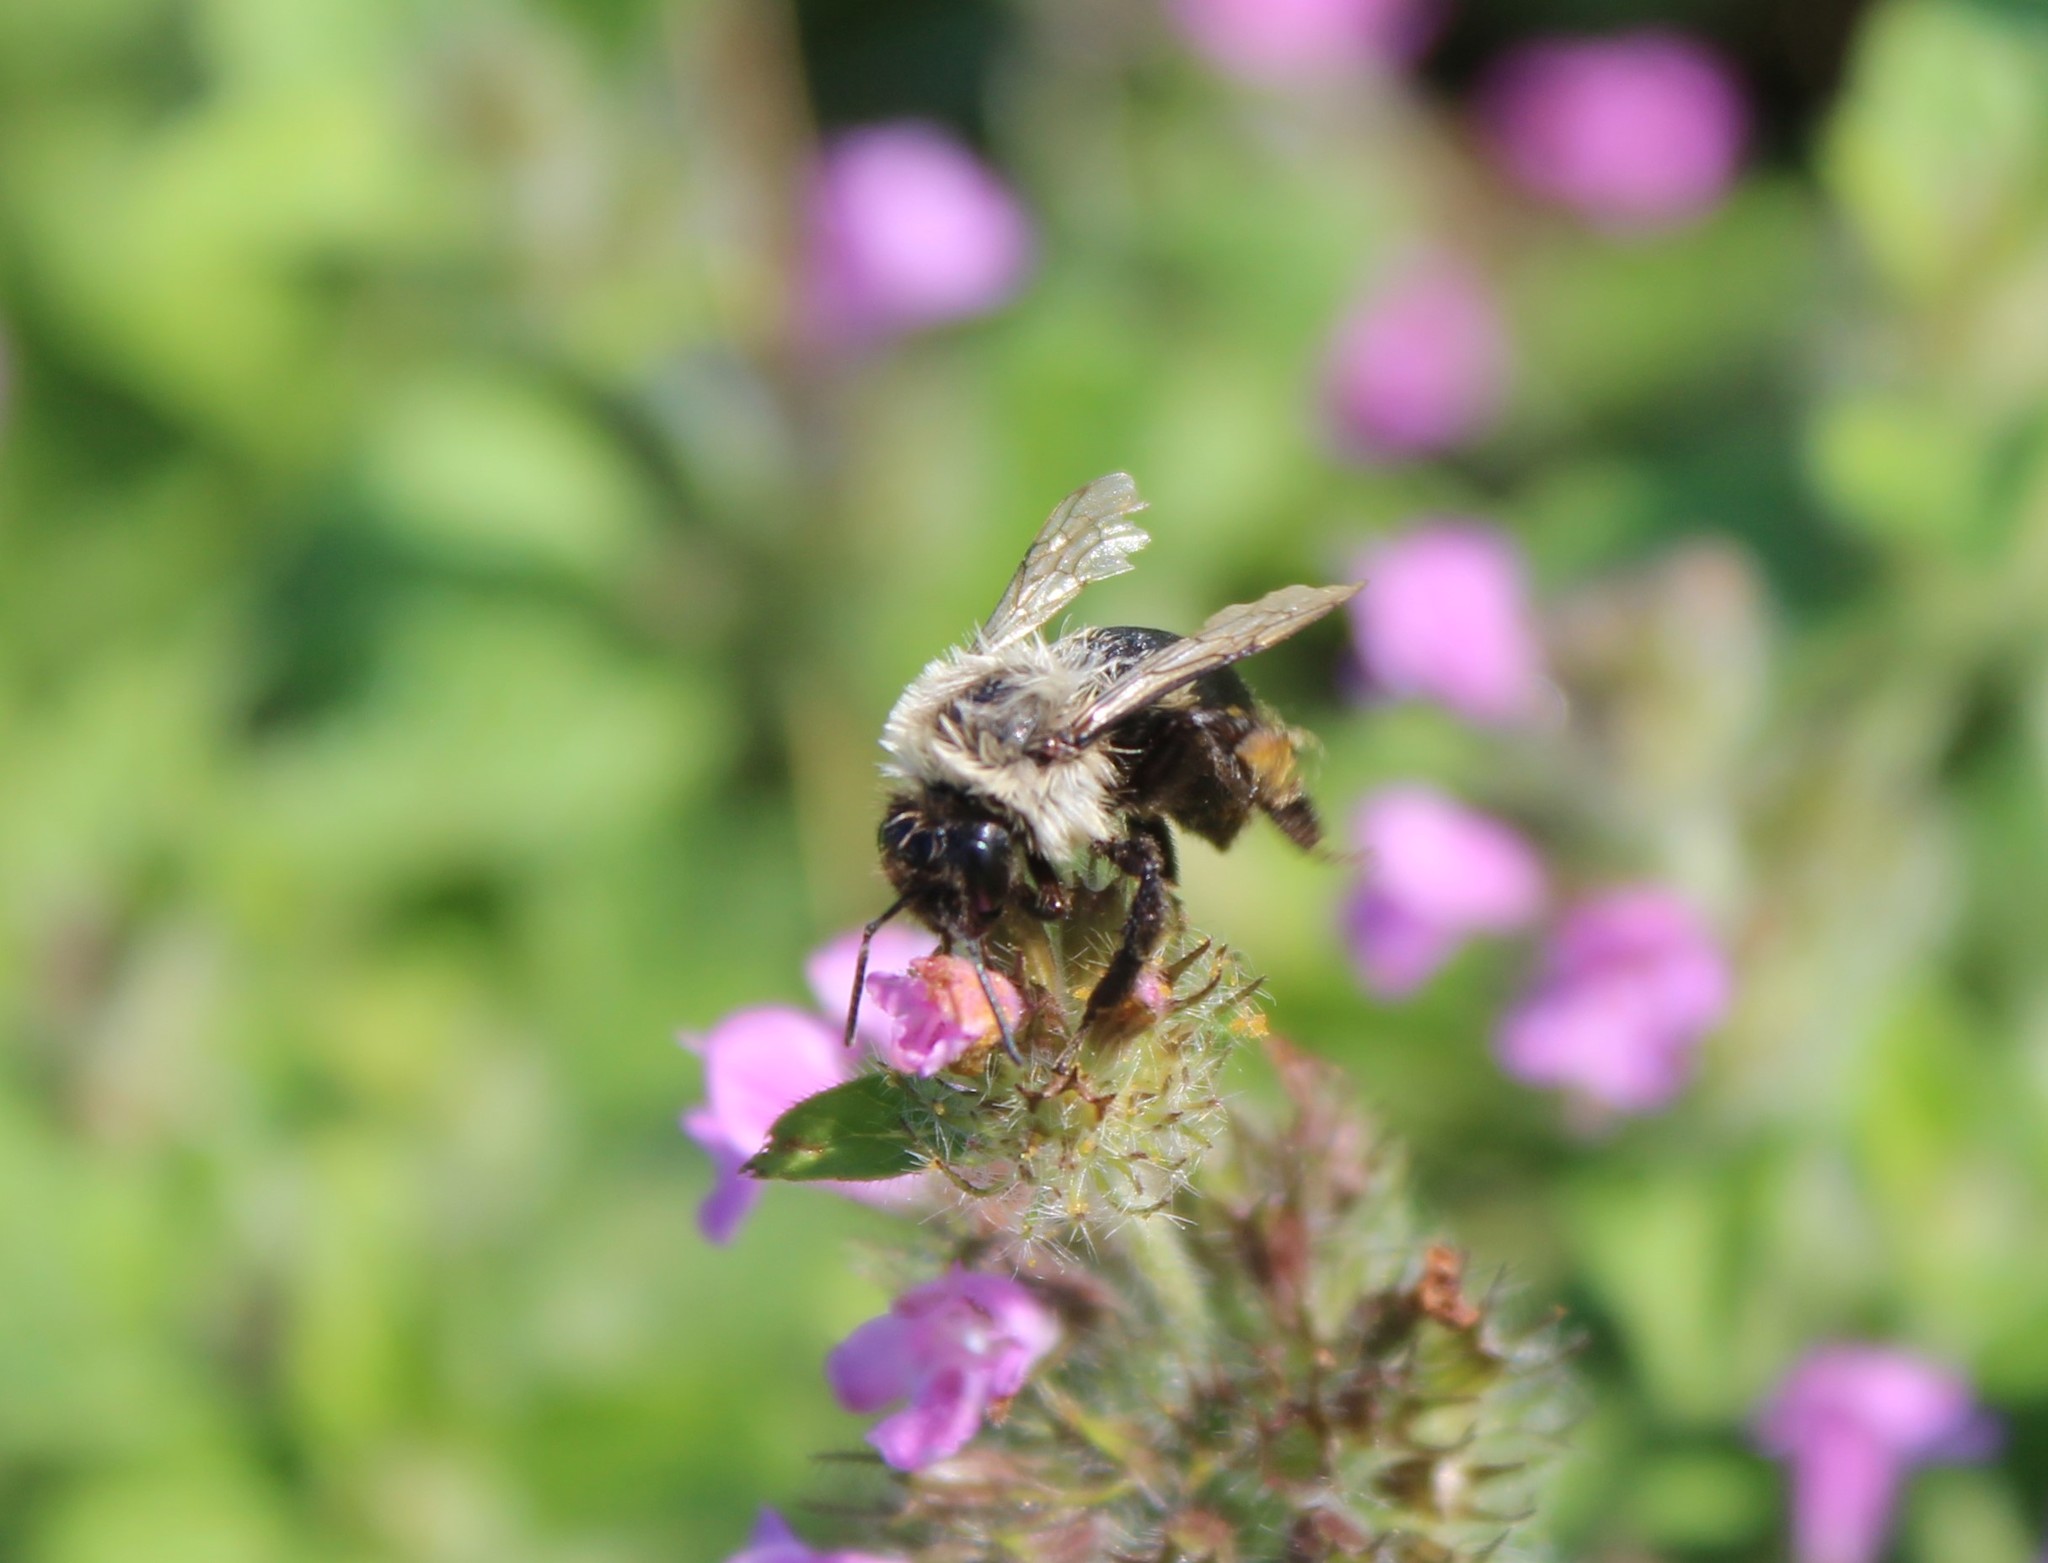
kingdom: Animalia
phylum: Arthropoda
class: Insecta
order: Hymenoptera
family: Apidae
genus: Bombus
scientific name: Bombus impatiens
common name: Common eastern bumble bee
